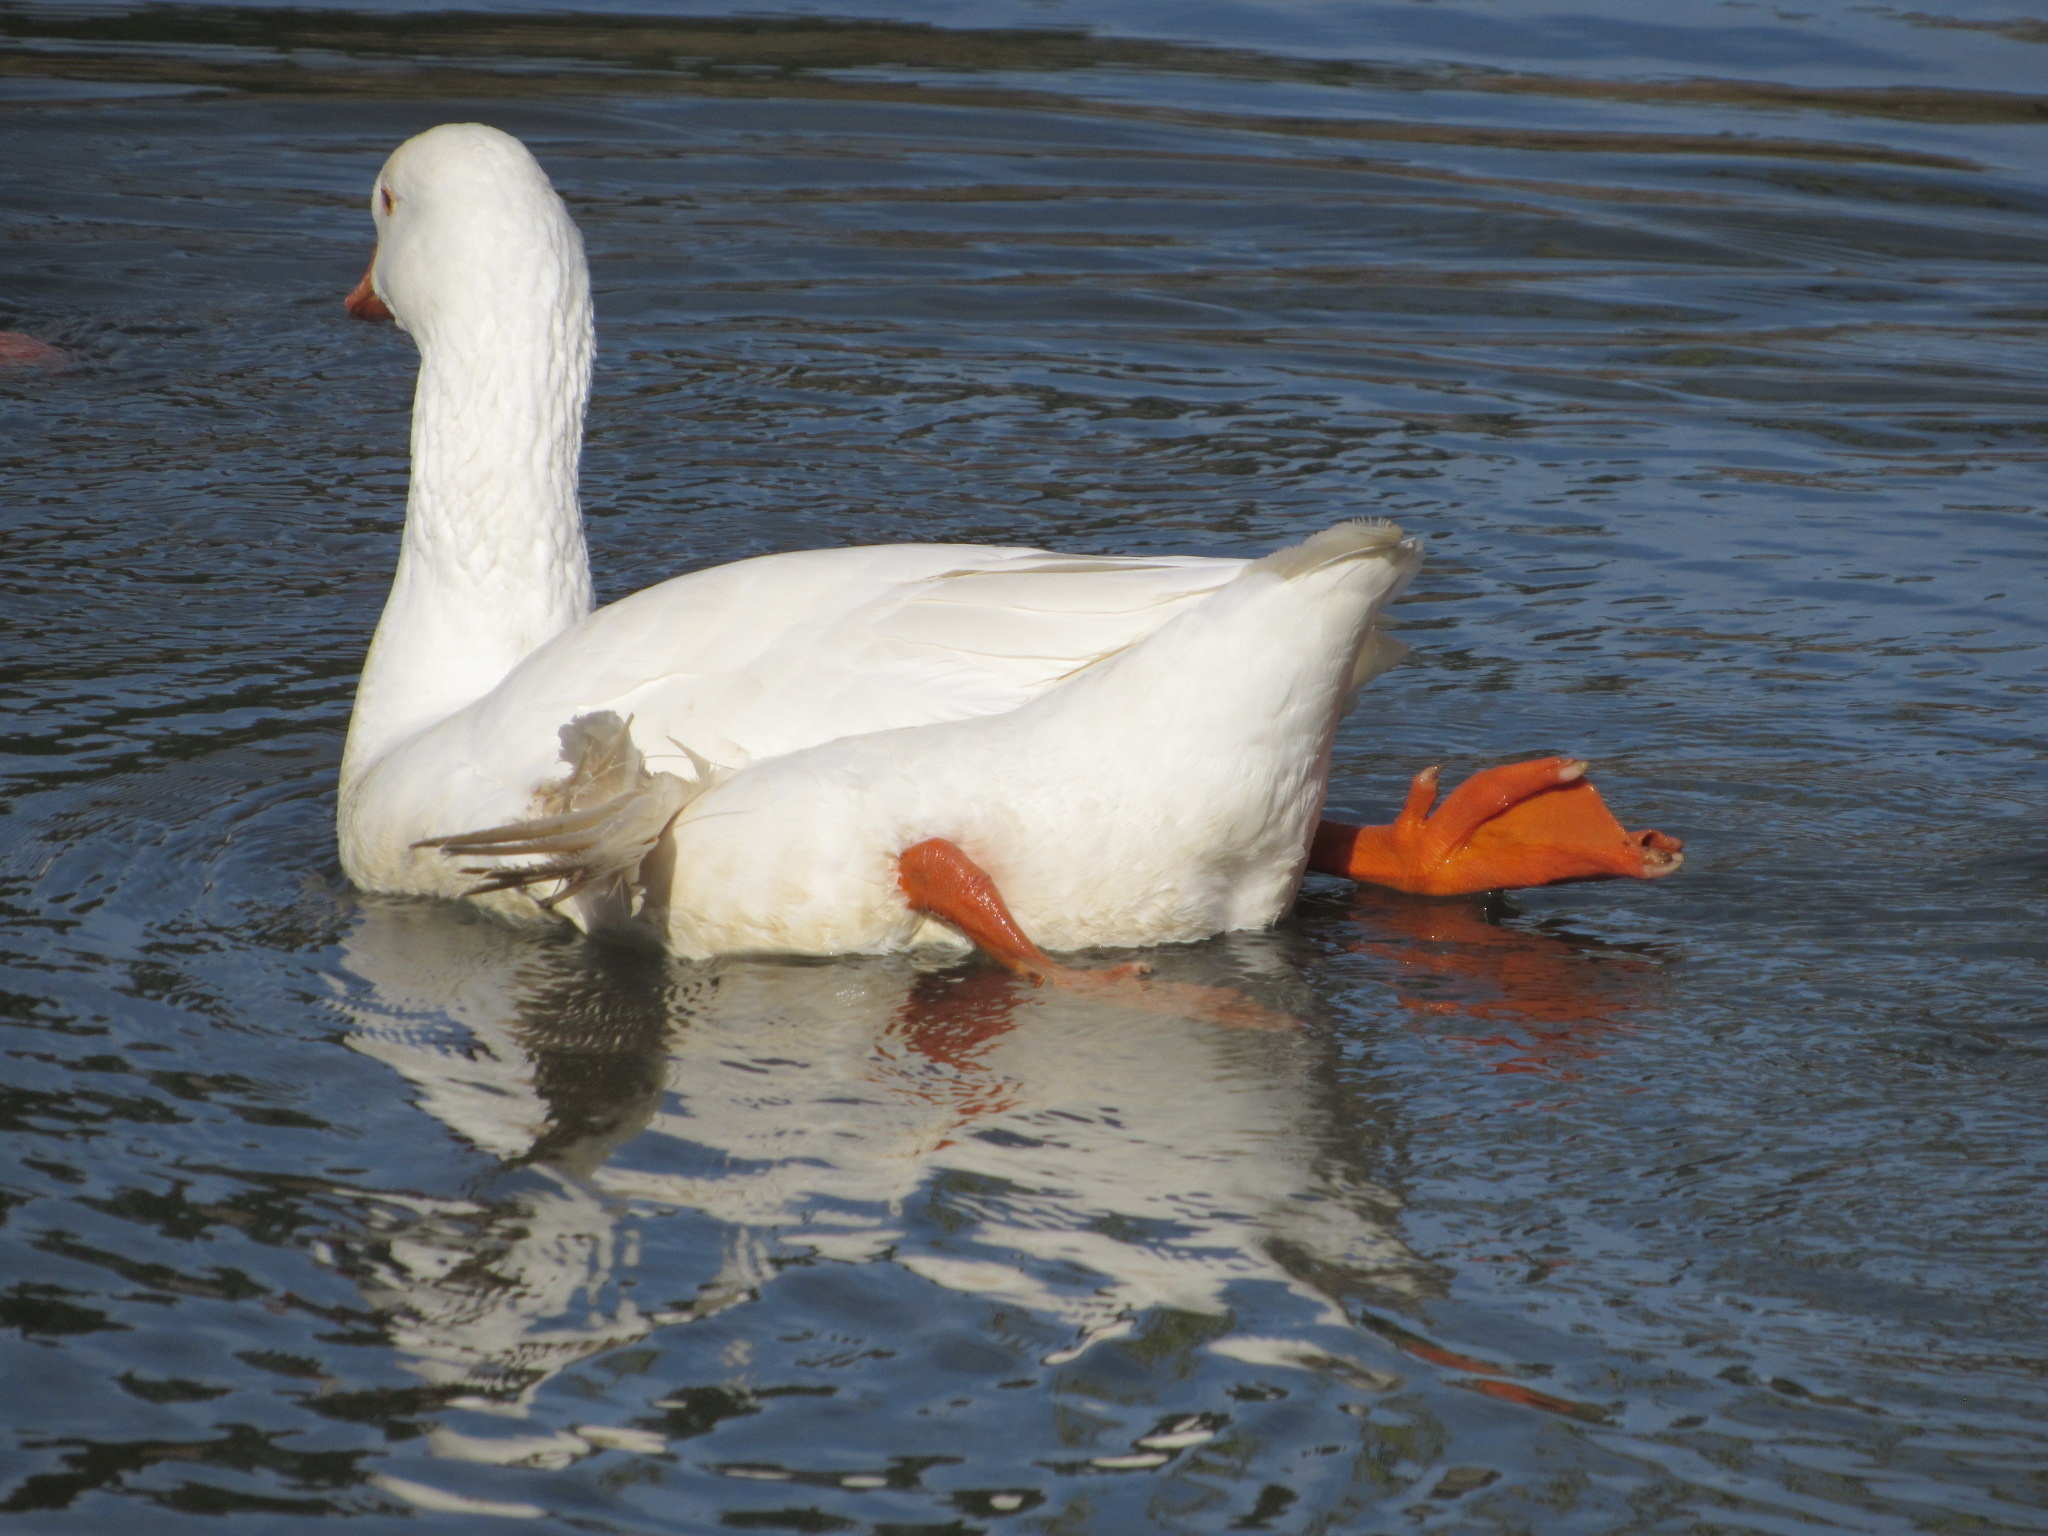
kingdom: Animalia
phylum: Chordata
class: Aves
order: Anseriformes
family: Anatidae
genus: Anser
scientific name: Anser anser
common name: Greylag goose
